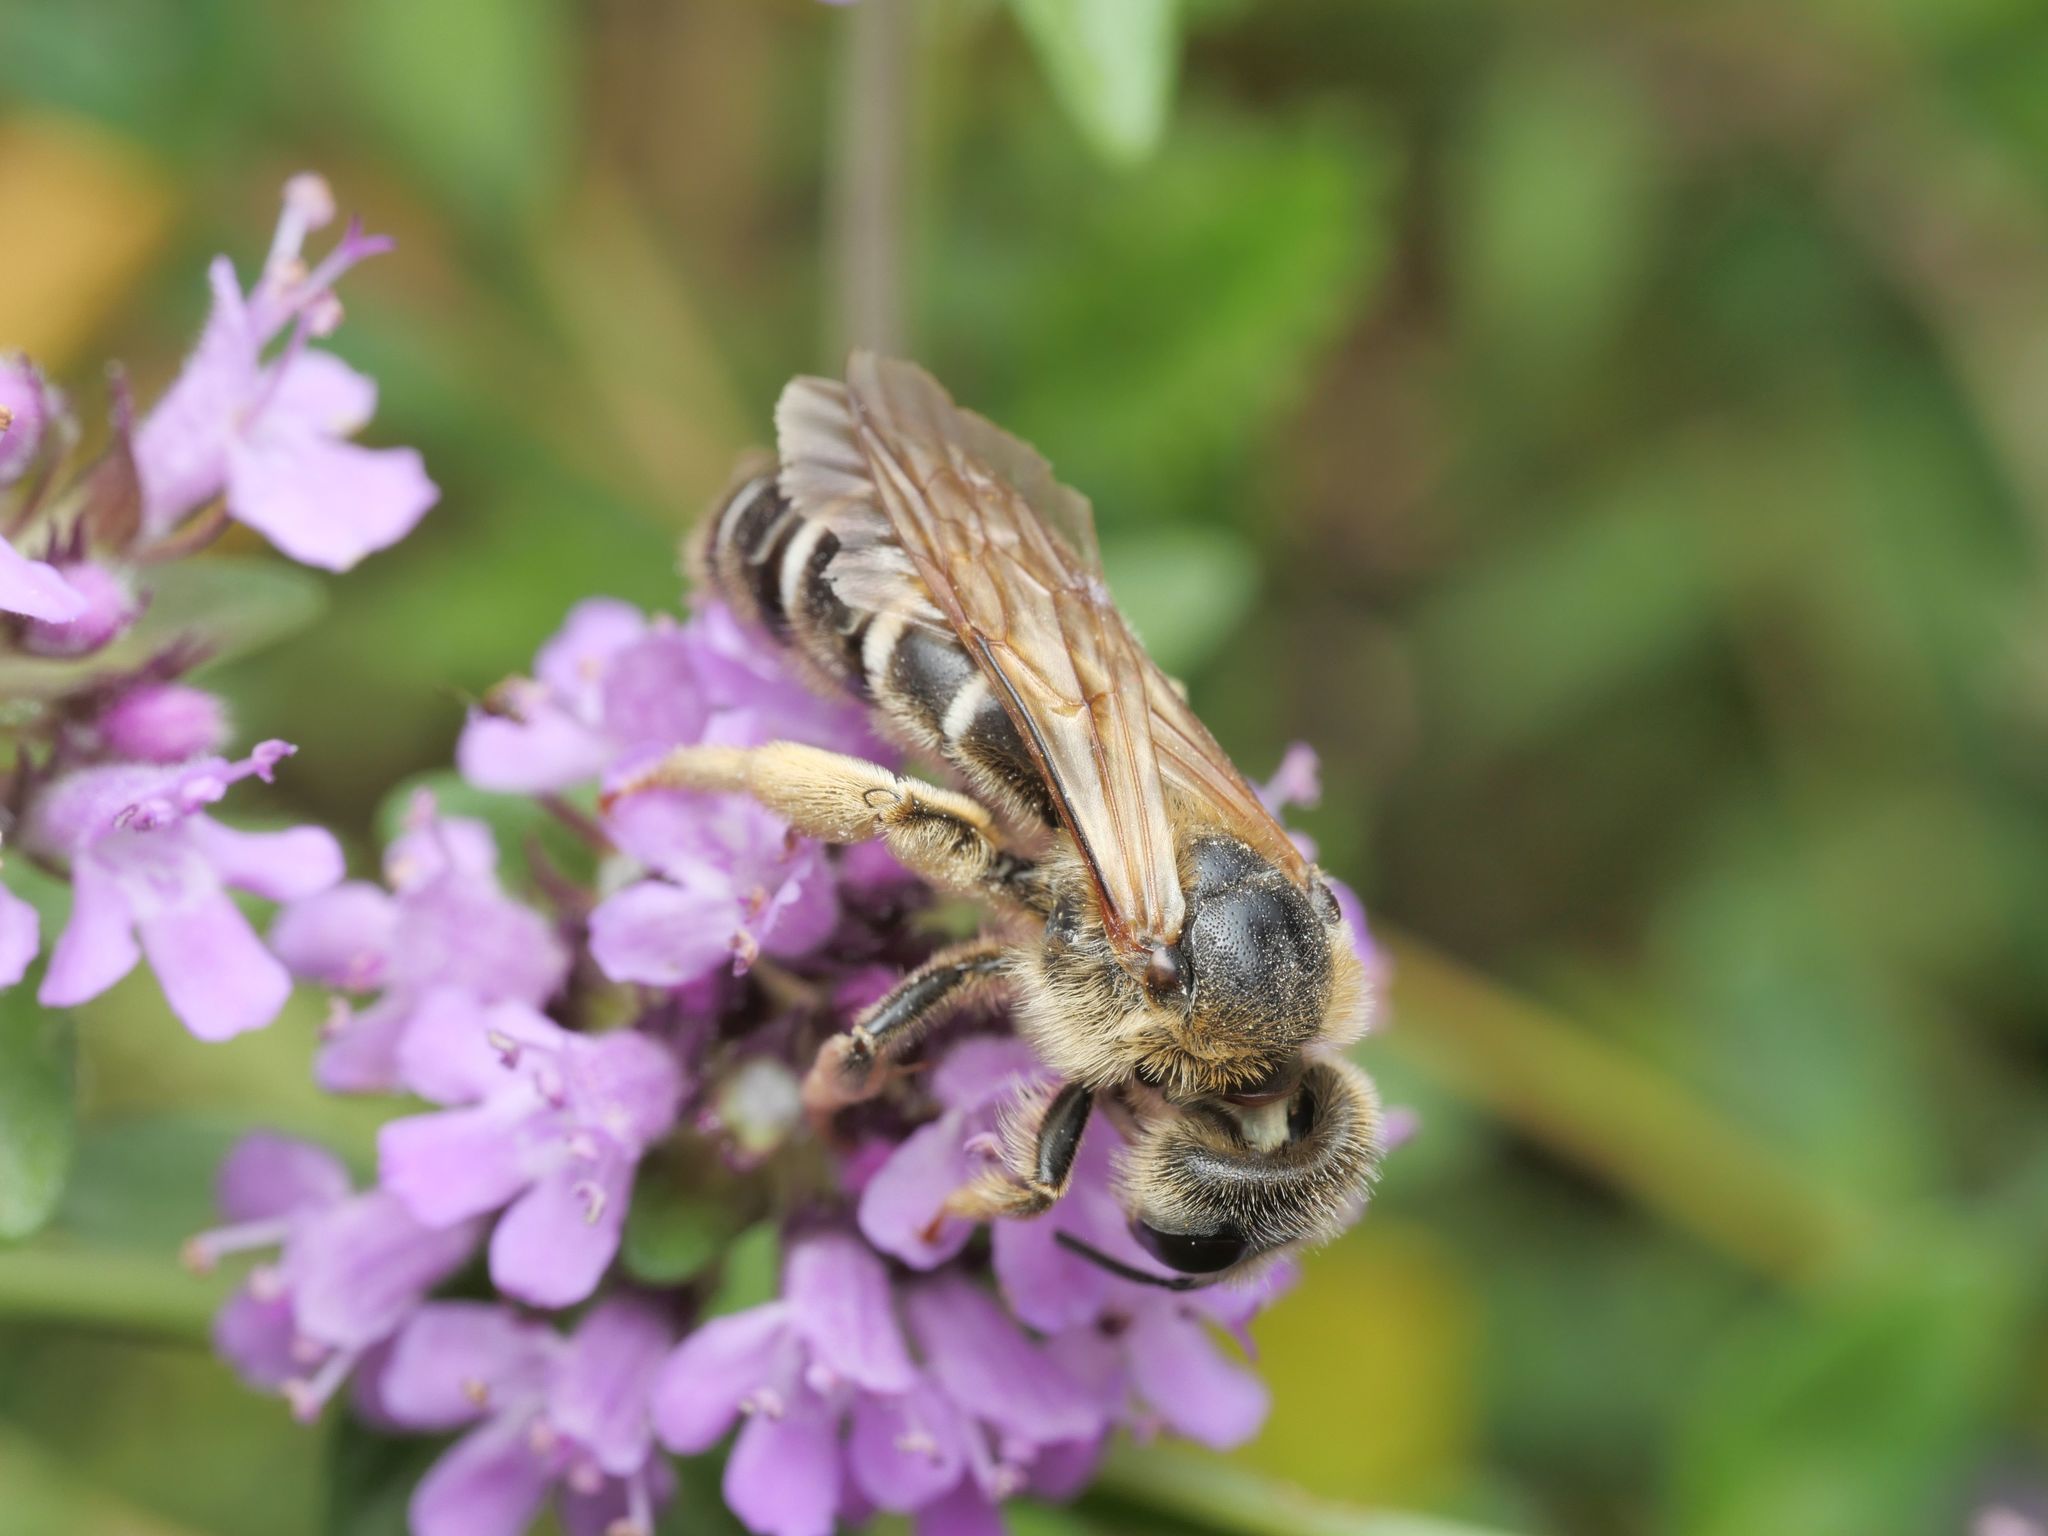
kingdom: Animalia
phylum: Arthropoda
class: Insecta
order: Hymenoptera
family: Halictidae
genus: Halictus
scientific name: Halictus quadricinctus
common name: Giant furrow bee
